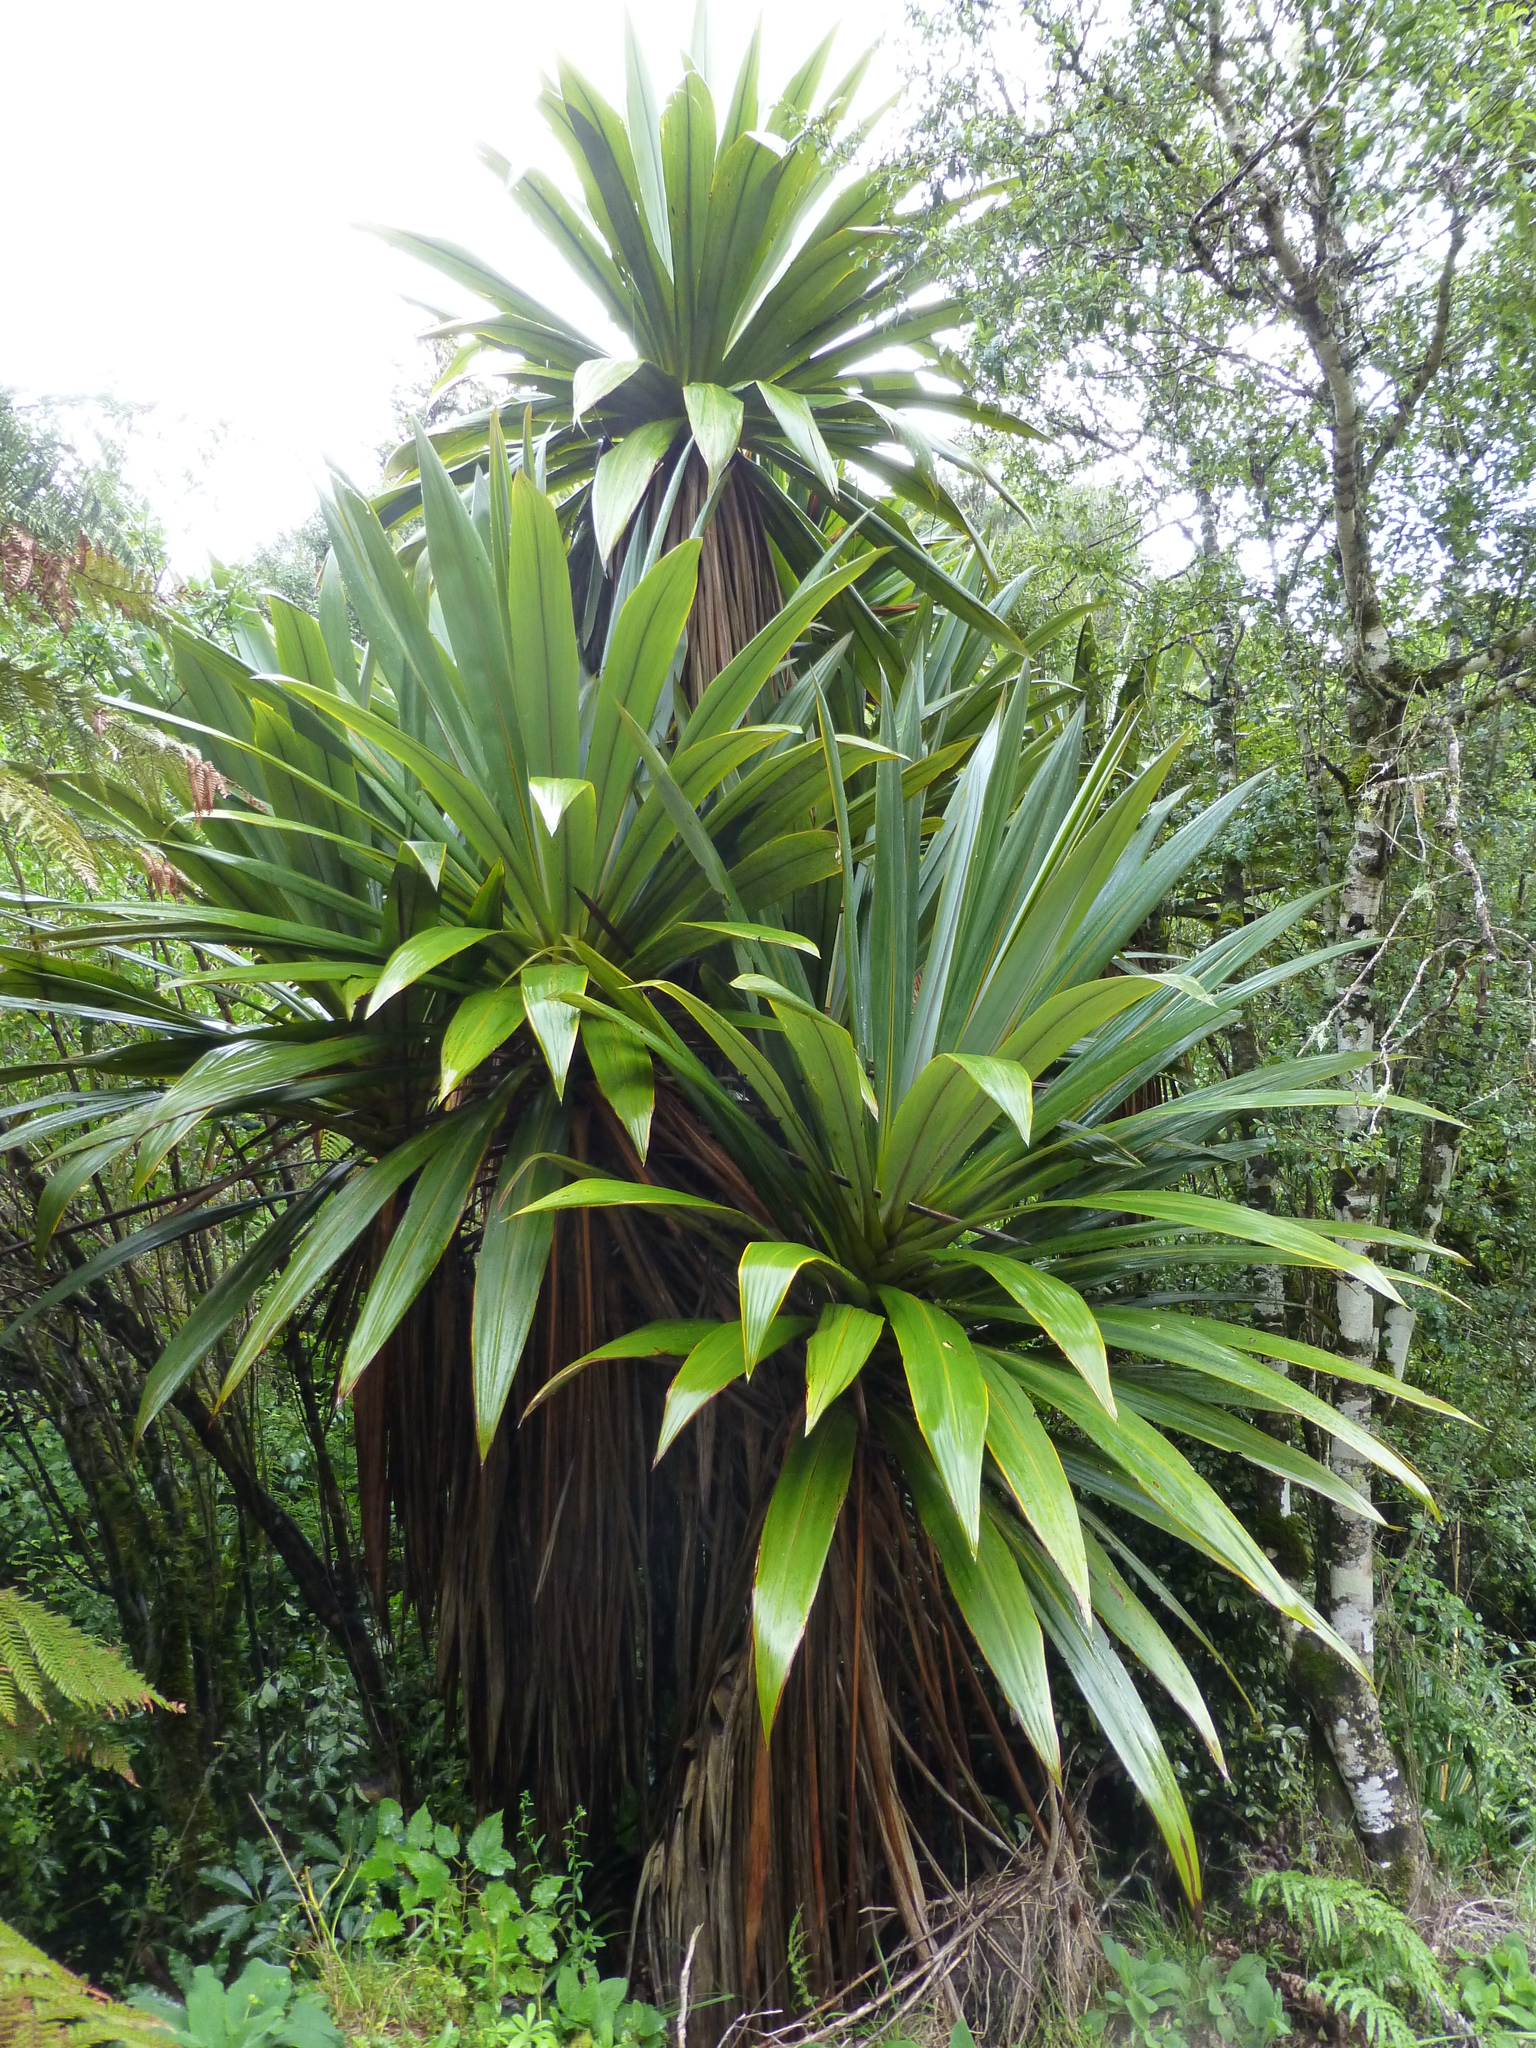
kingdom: Plantae
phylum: Tracheophyta
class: Liliopsida
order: Asparagales
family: Asparagaceae
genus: Cordyline
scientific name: Cordyline indivisa
